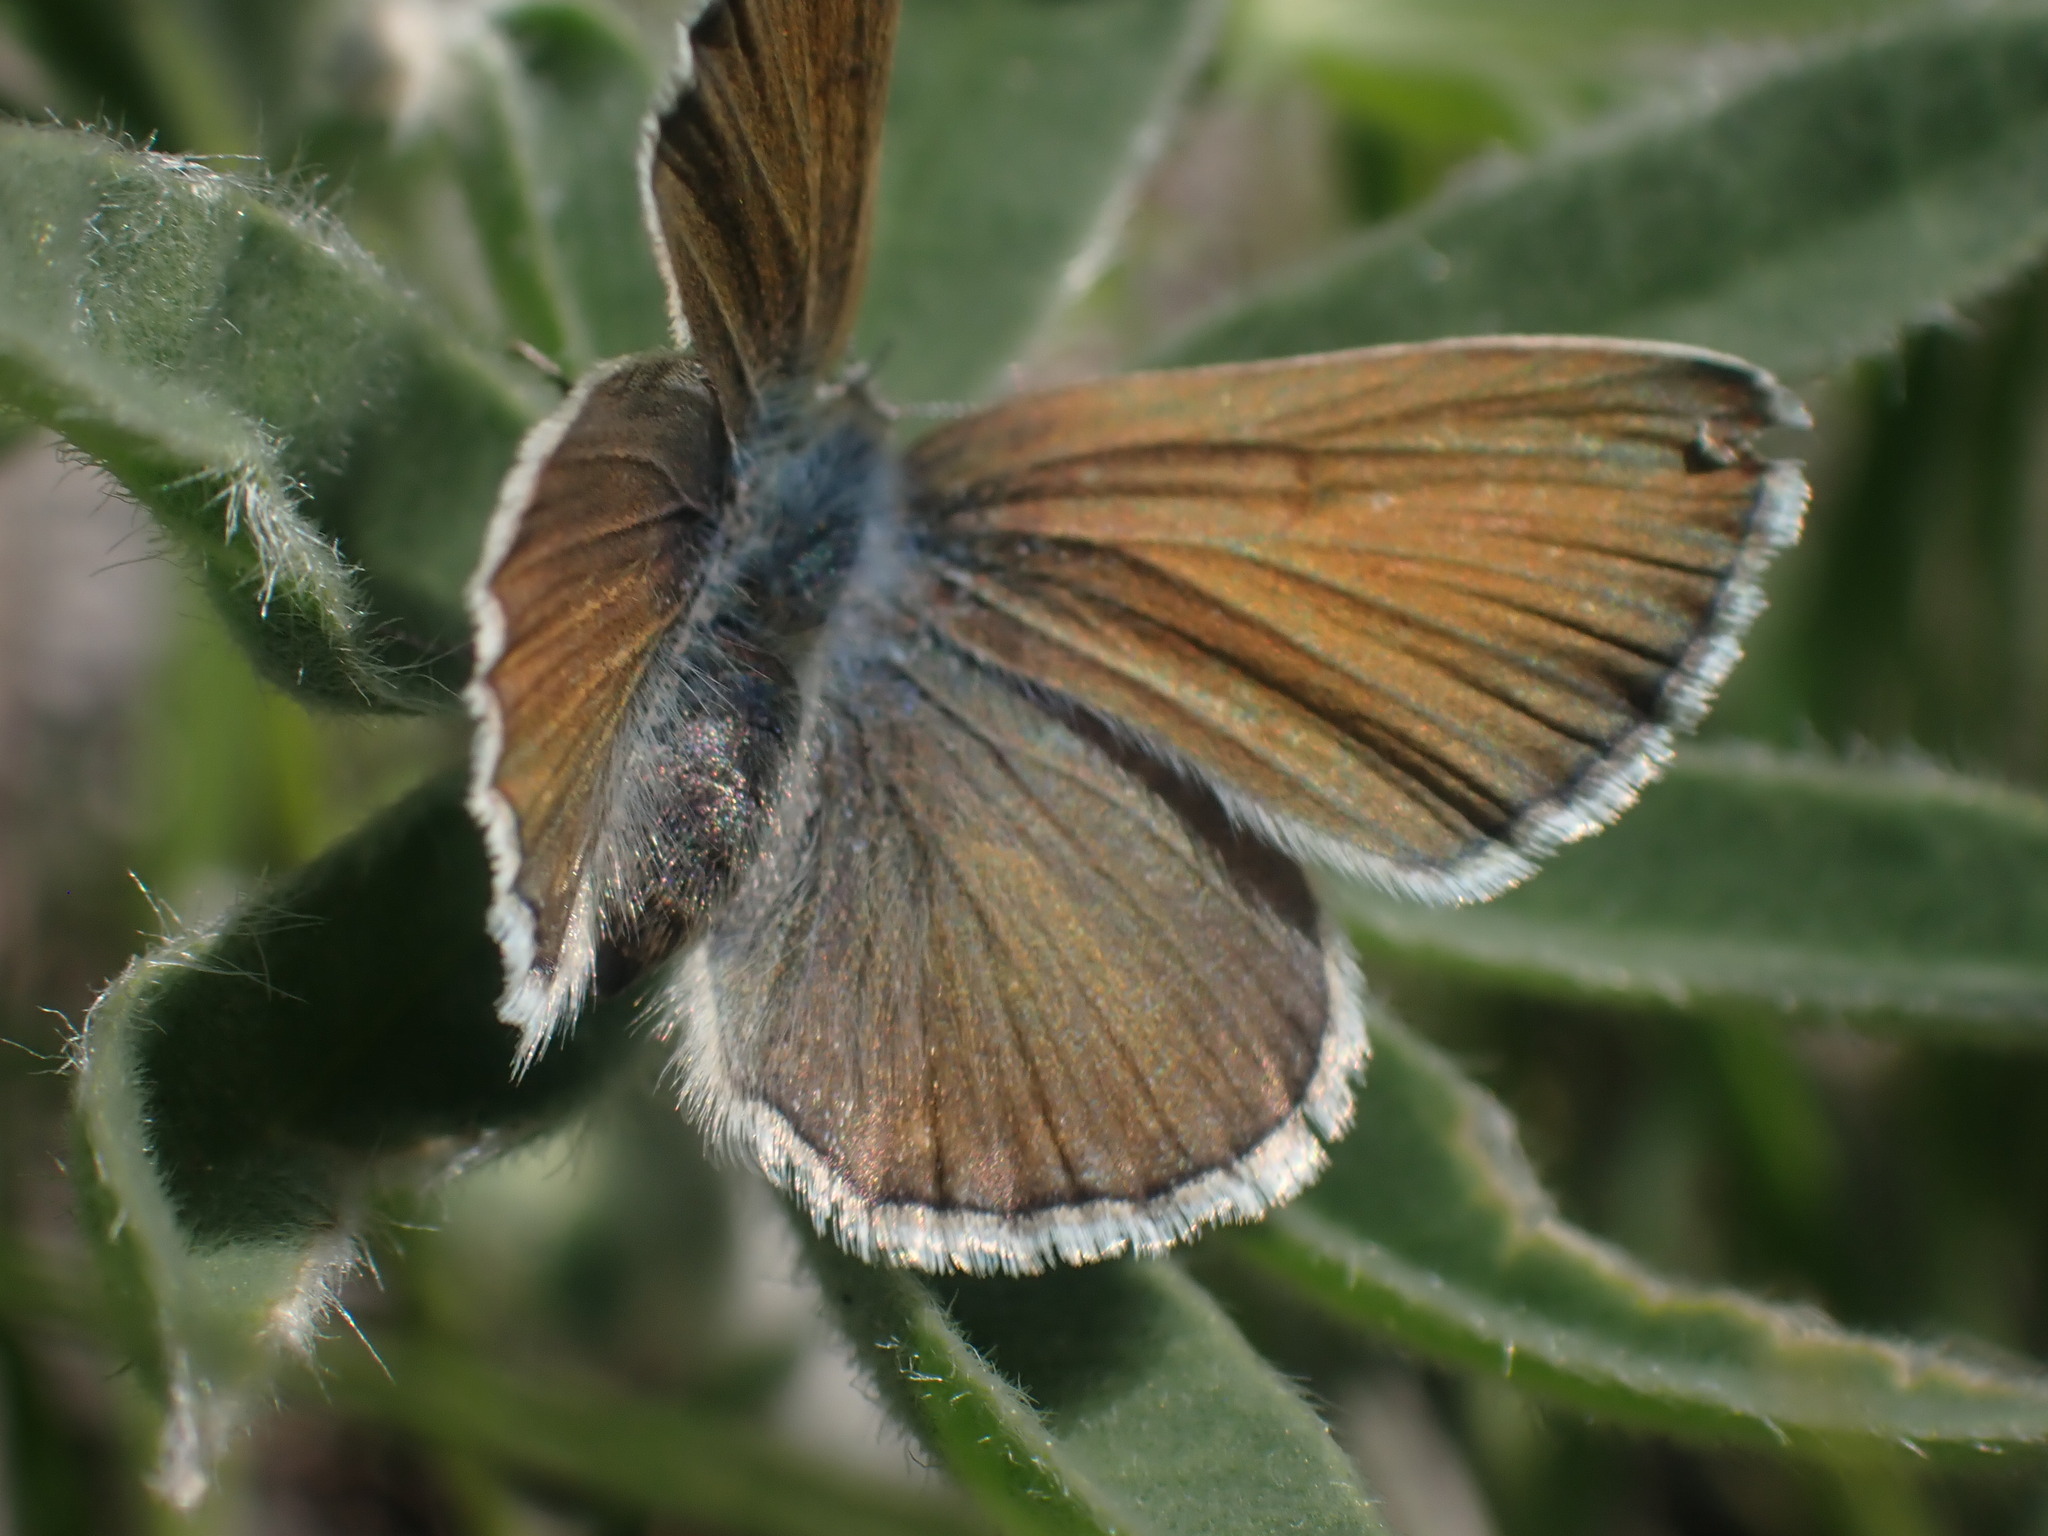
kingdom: Animalia
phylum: Arthropoda
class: Insecta
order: Lepidoptera
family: Lycaenidae
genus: Icaricia
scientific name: Icaricia icarioides
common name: Boisduval's blue
